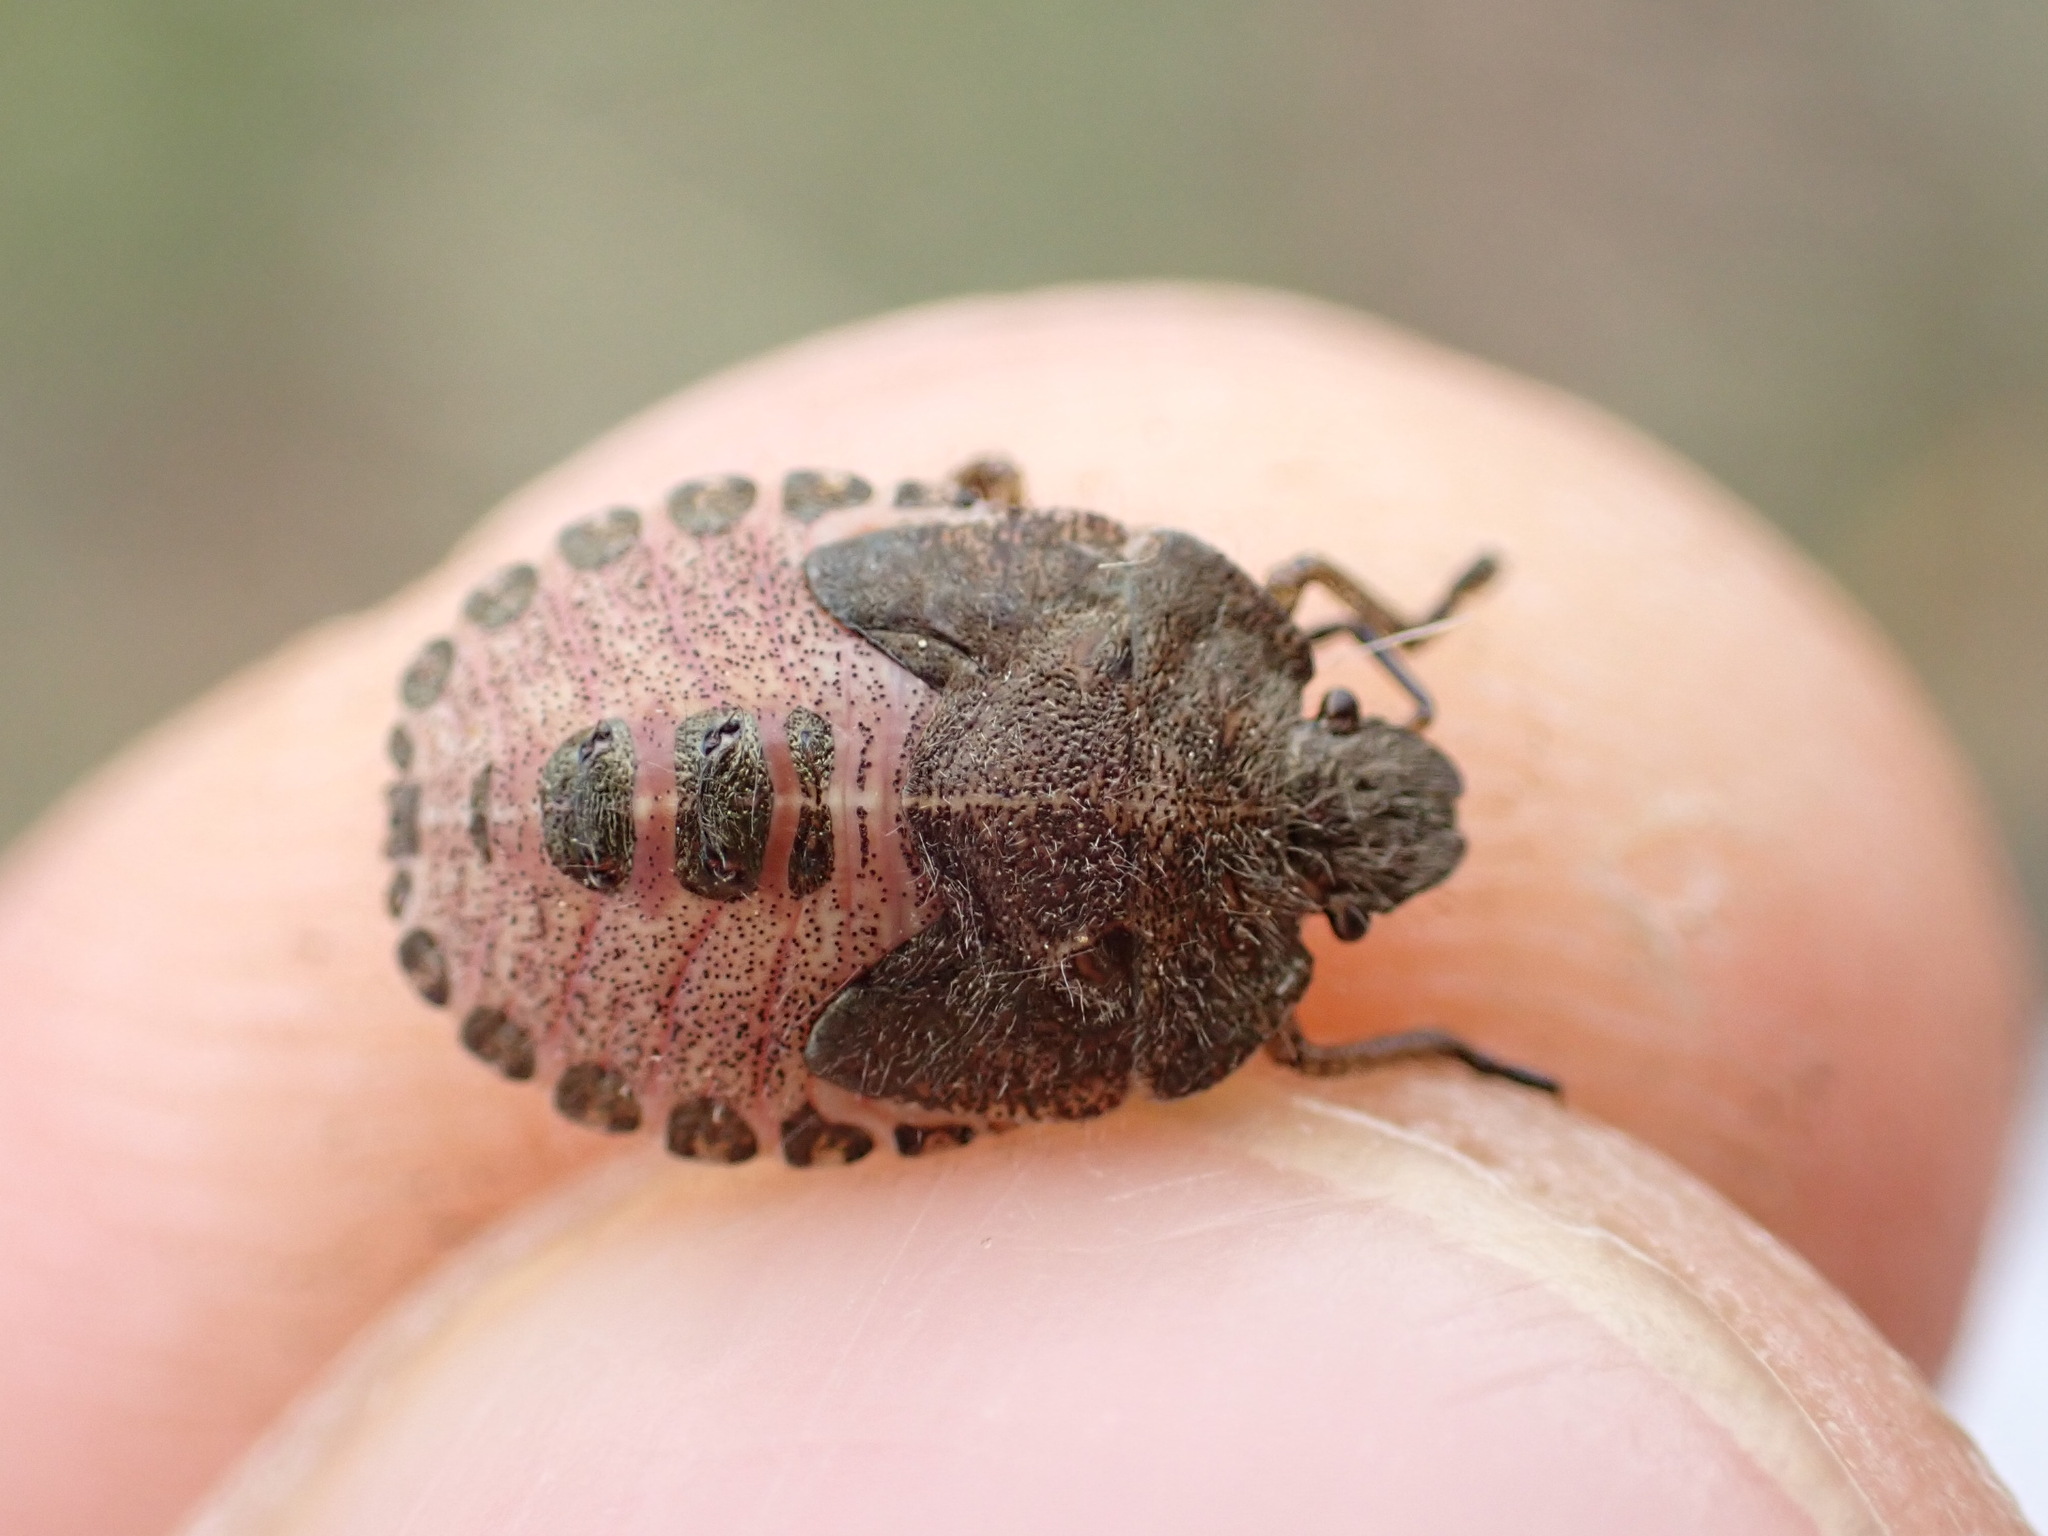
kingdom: Animalia
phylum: Arthropoda
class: Insecta
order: Hemiptera
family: Pentatomidae
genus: Dolycoris
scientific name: Dolycoris baccarum
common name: Sloe bug
